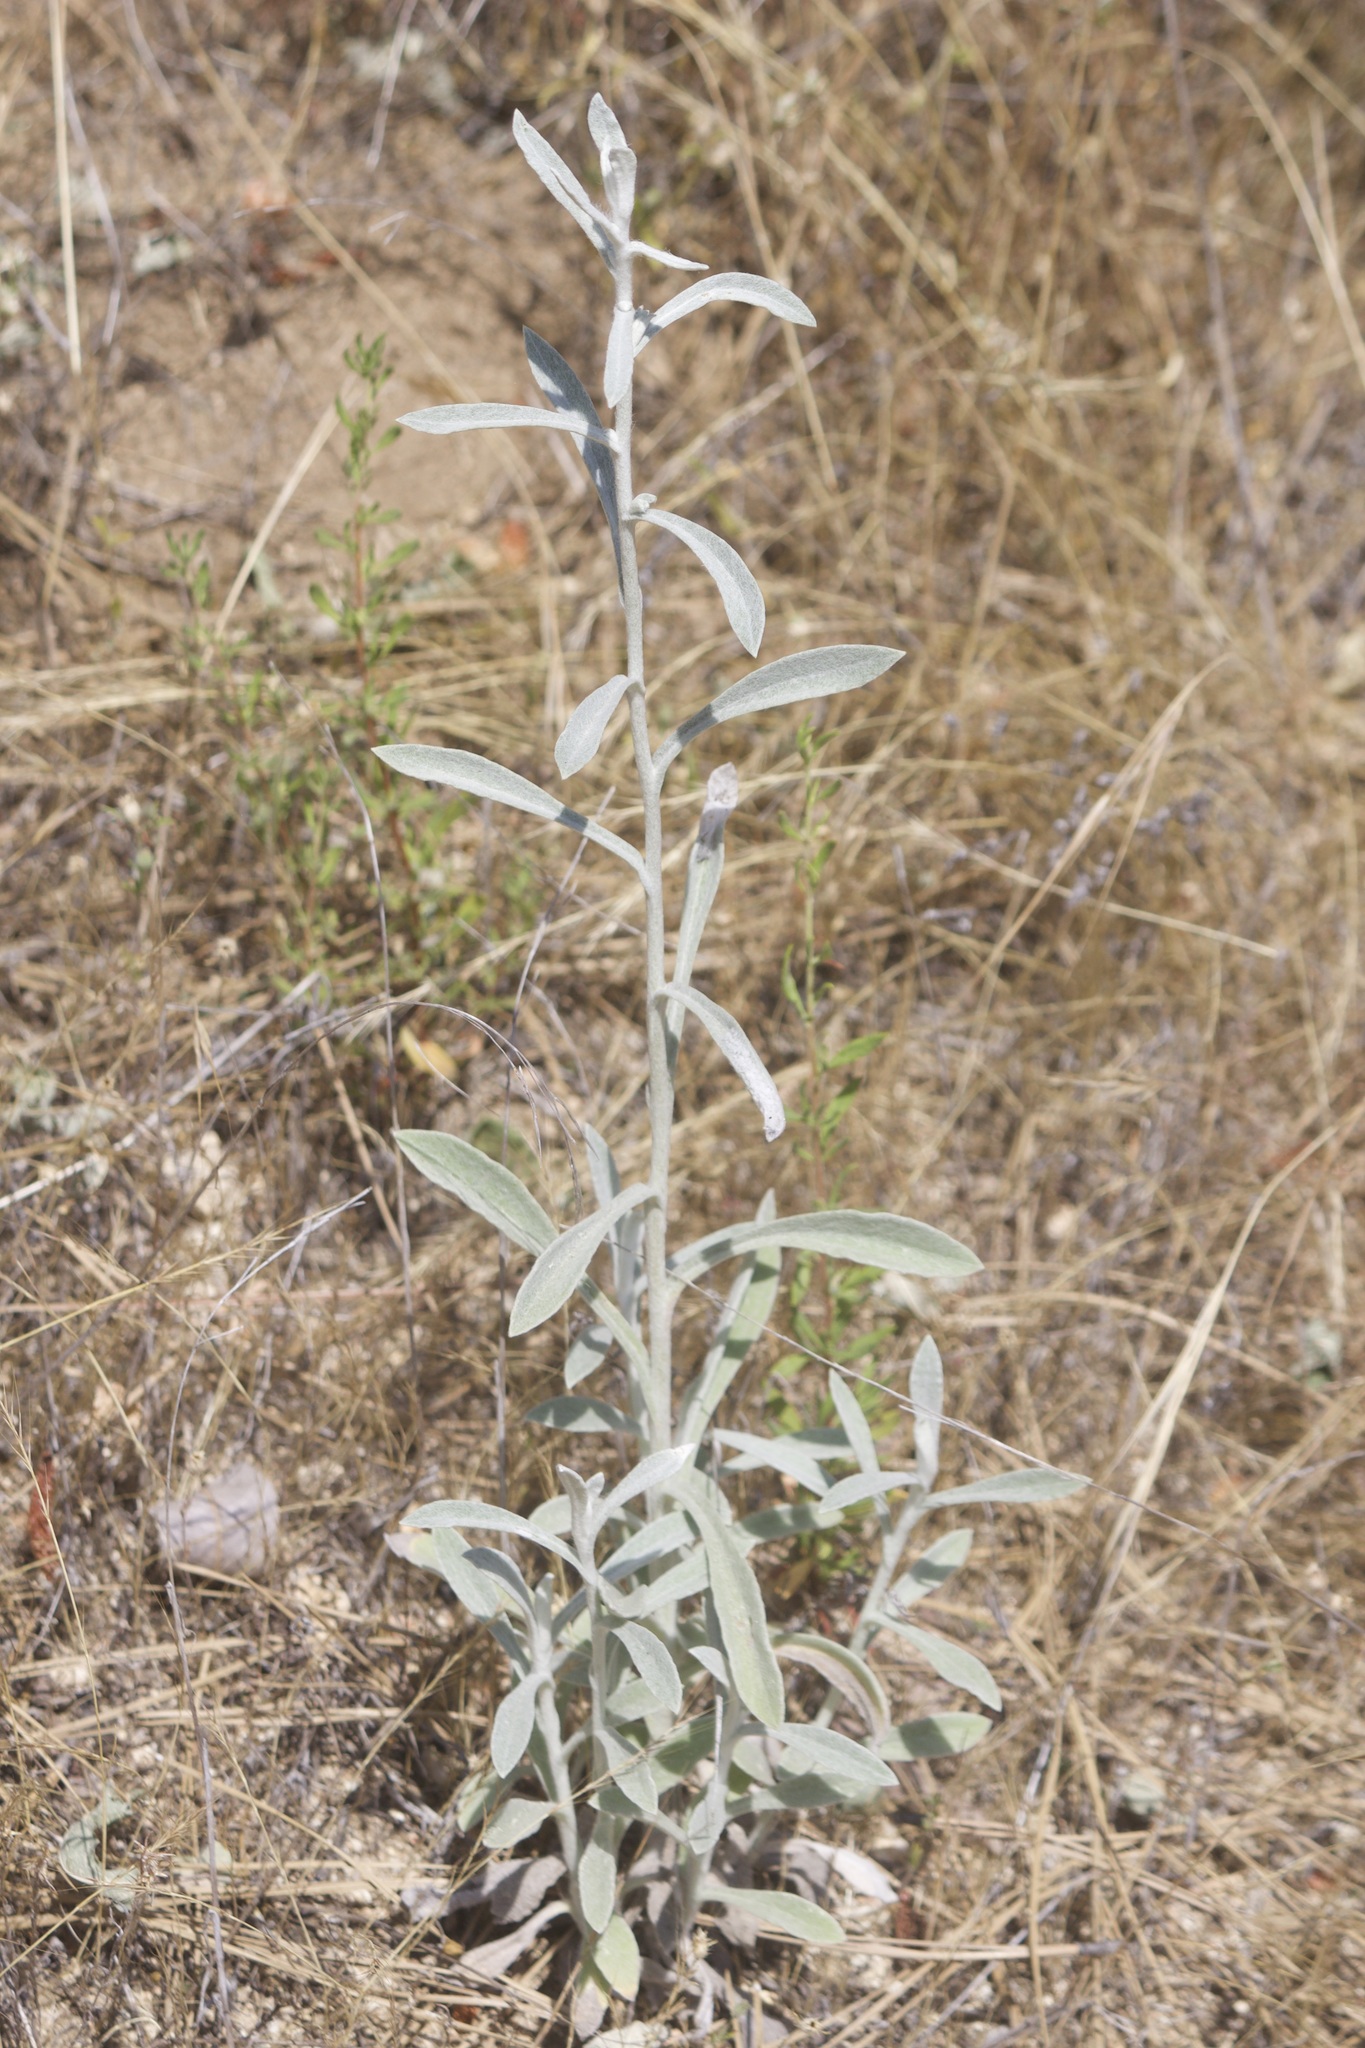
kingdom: Plantae
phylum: Tracheophyta
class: Magnoliopsida
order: Asterales
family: Asteraceae
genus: Pseudognaphalium
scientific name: Pseudognaphalium microcephalum
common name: San diego rabbit-tobacco
